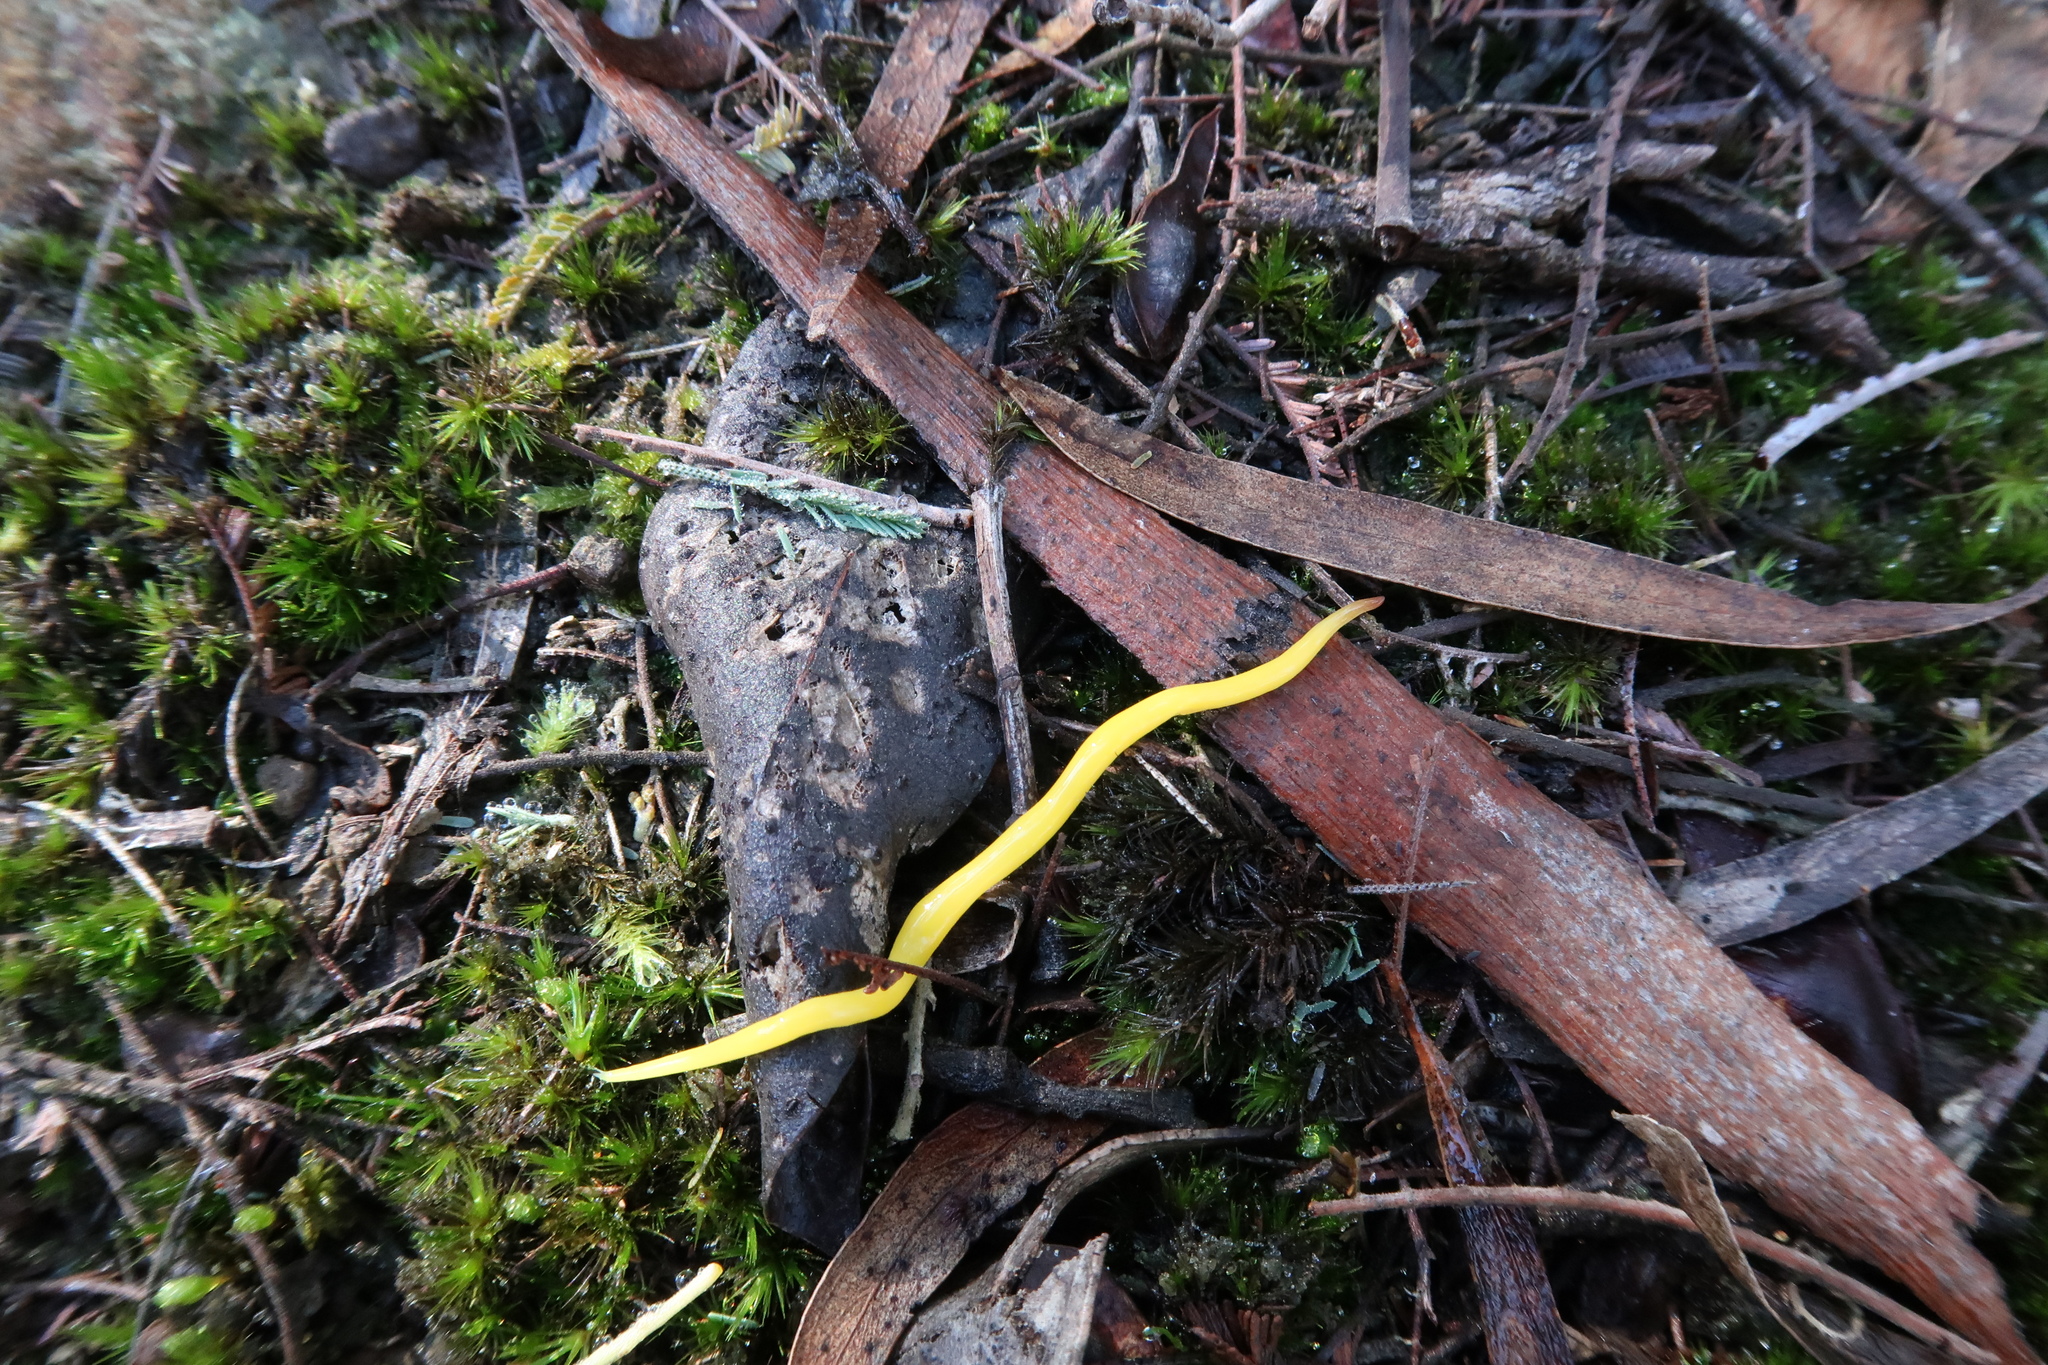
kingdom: Animalia
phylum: Platyhelminthes
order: Tricladida
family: Geoplanidae
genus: Fletchamia
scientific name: Fletchamia sugdeni
